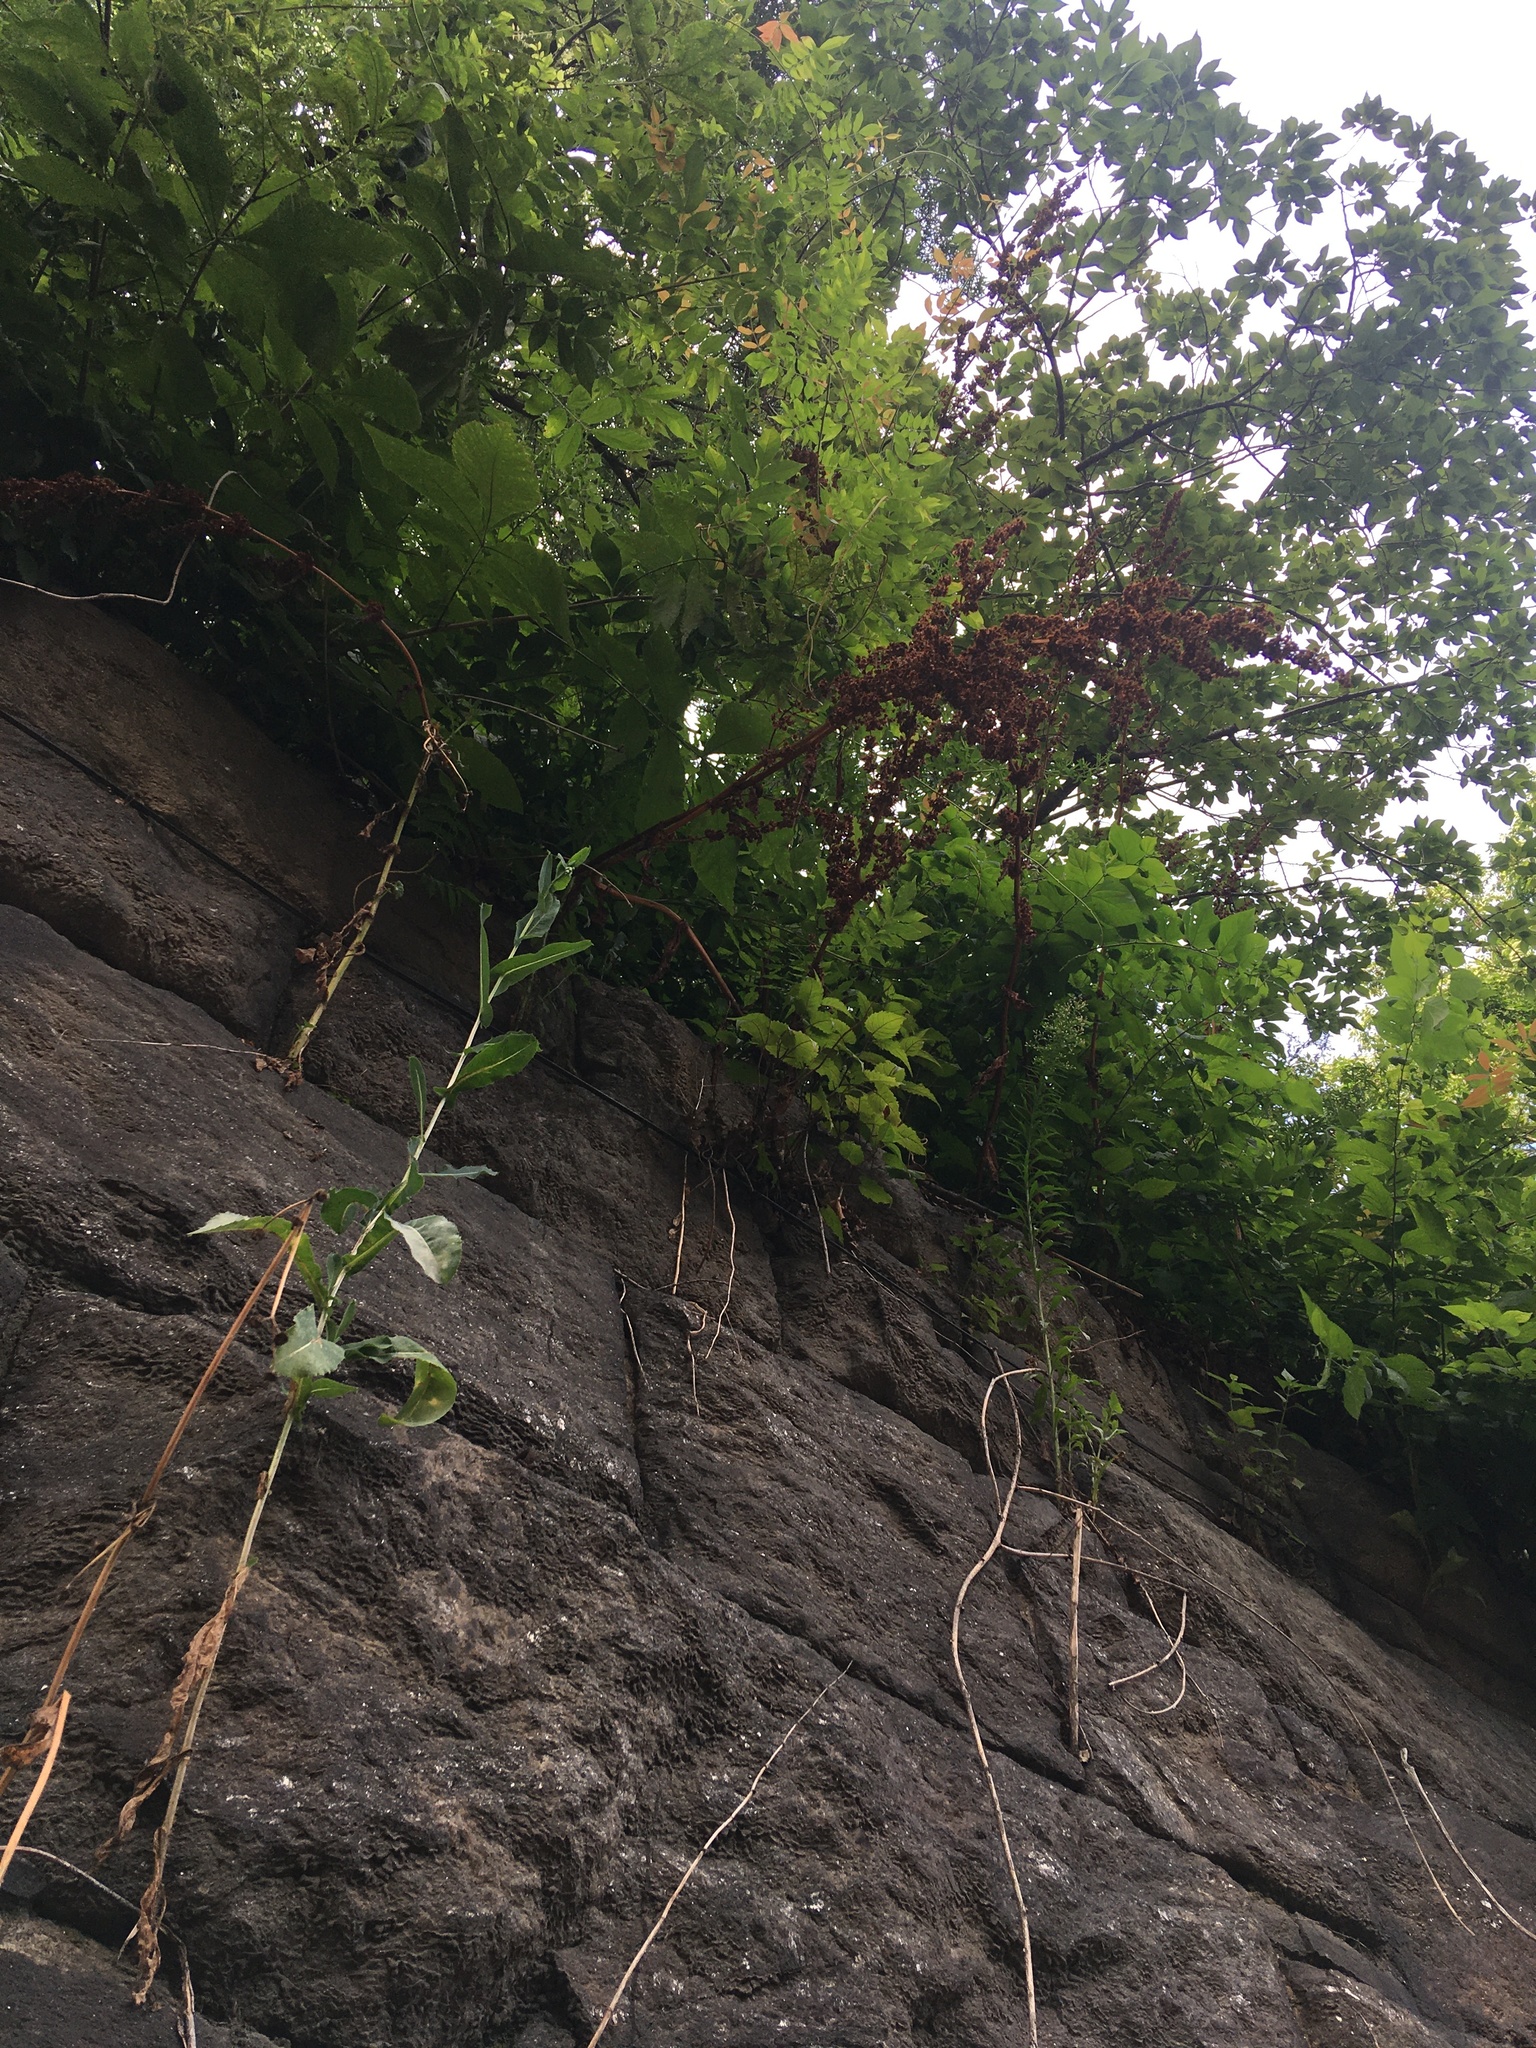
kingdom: Plantae
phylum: Tracheophyta
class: Magnoliopsida
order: Caryophyllales
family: Polygonaceae
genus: Rumex
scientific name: Rumex cristatus
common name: Greek dock
